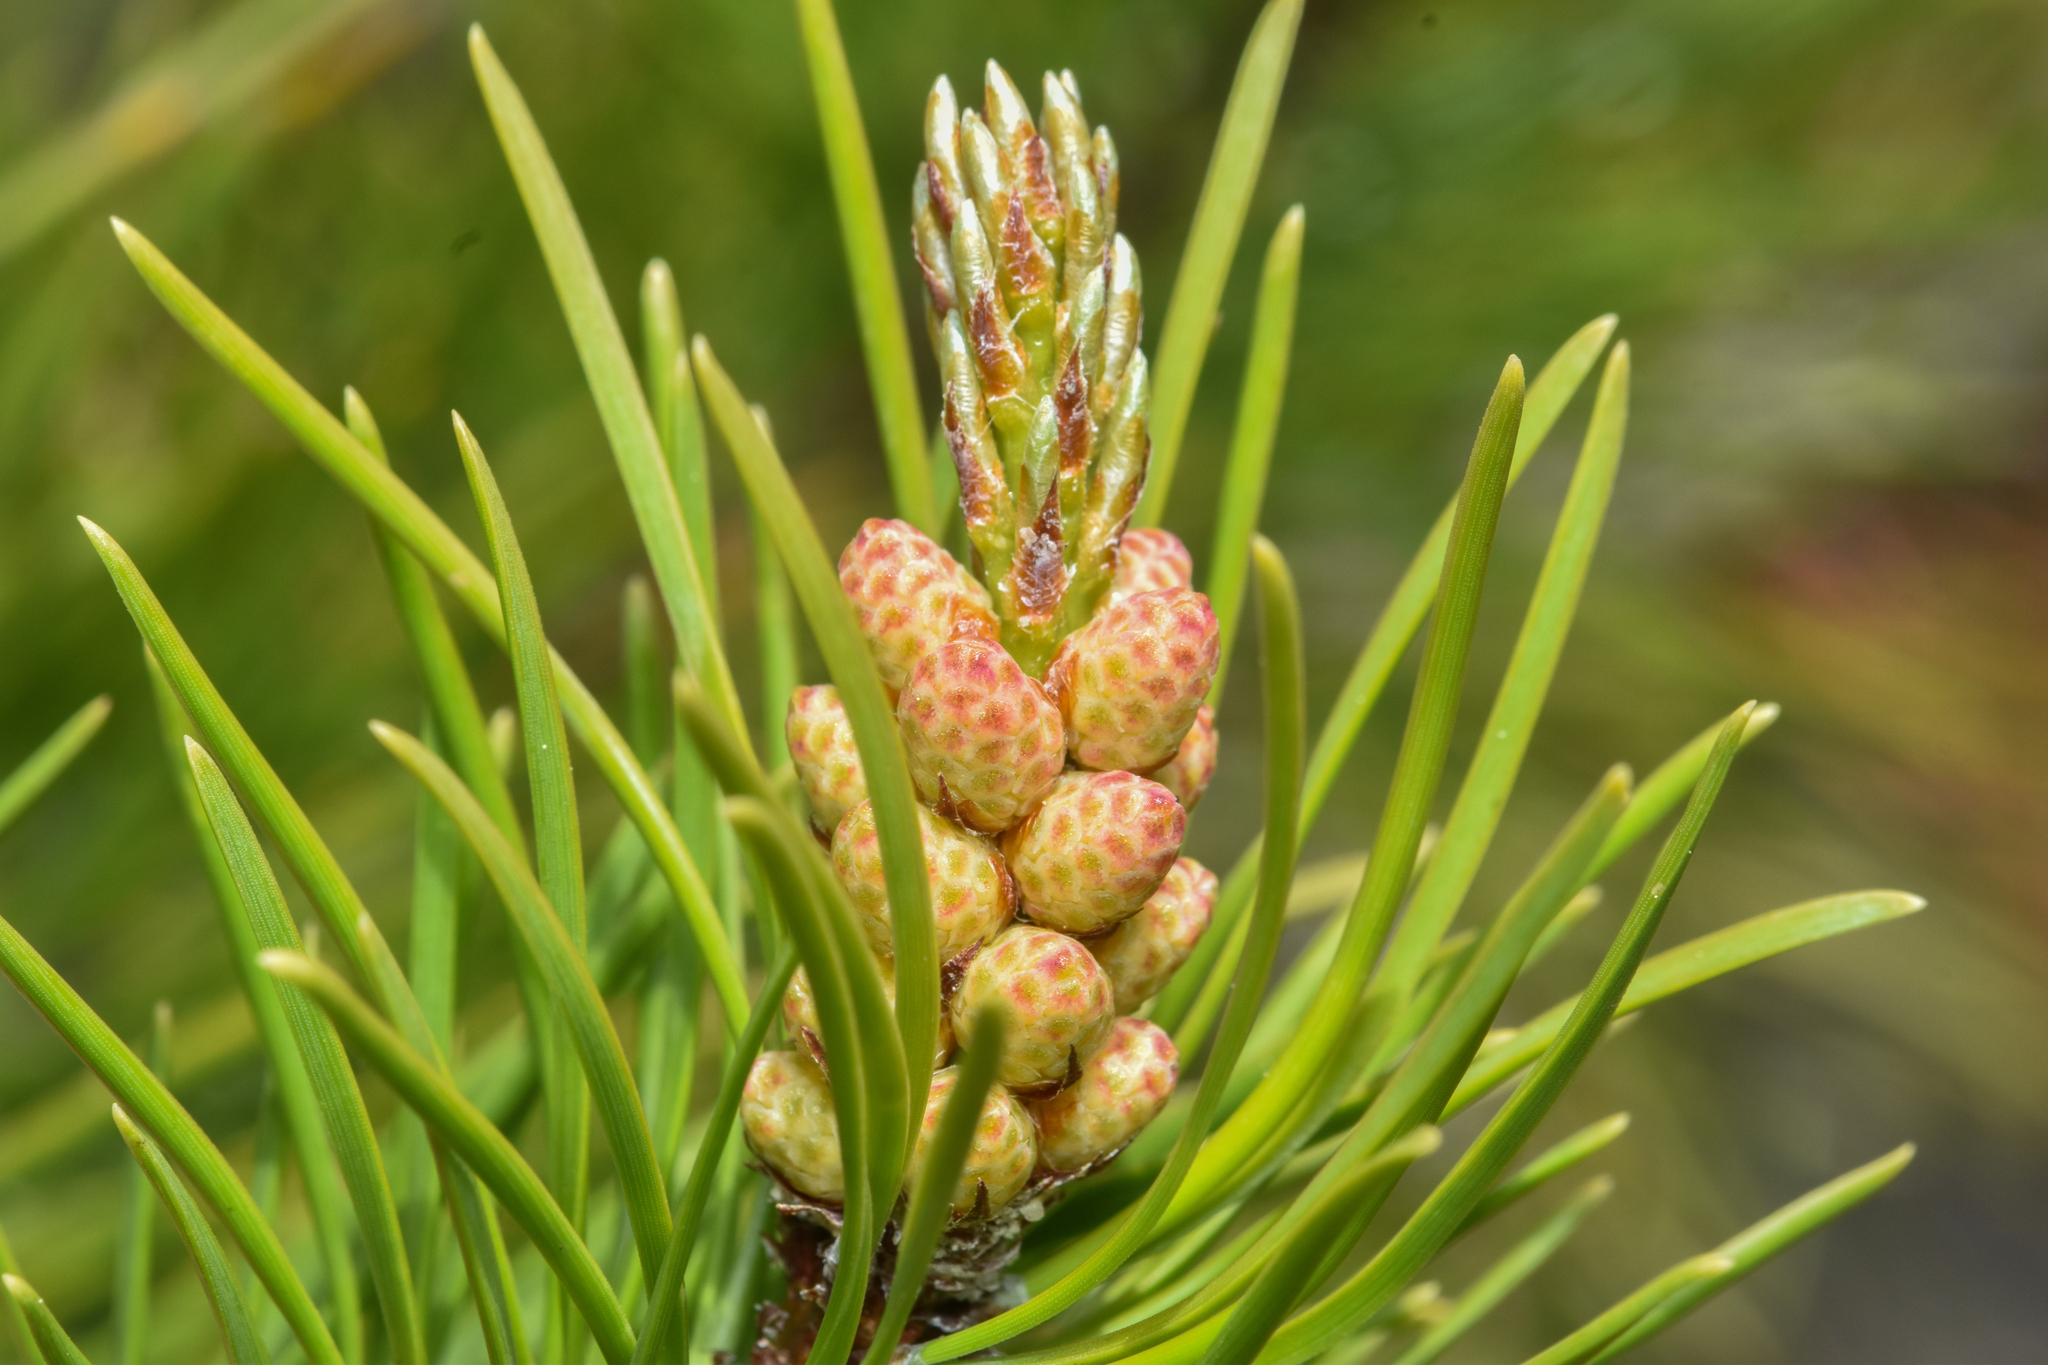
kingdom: Plantae
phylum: Tracheophyta
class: Pinopsida
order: Pinales
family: Pinaceae
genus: Pinus
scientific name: Pinus contorta
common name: Lodgepole pine
